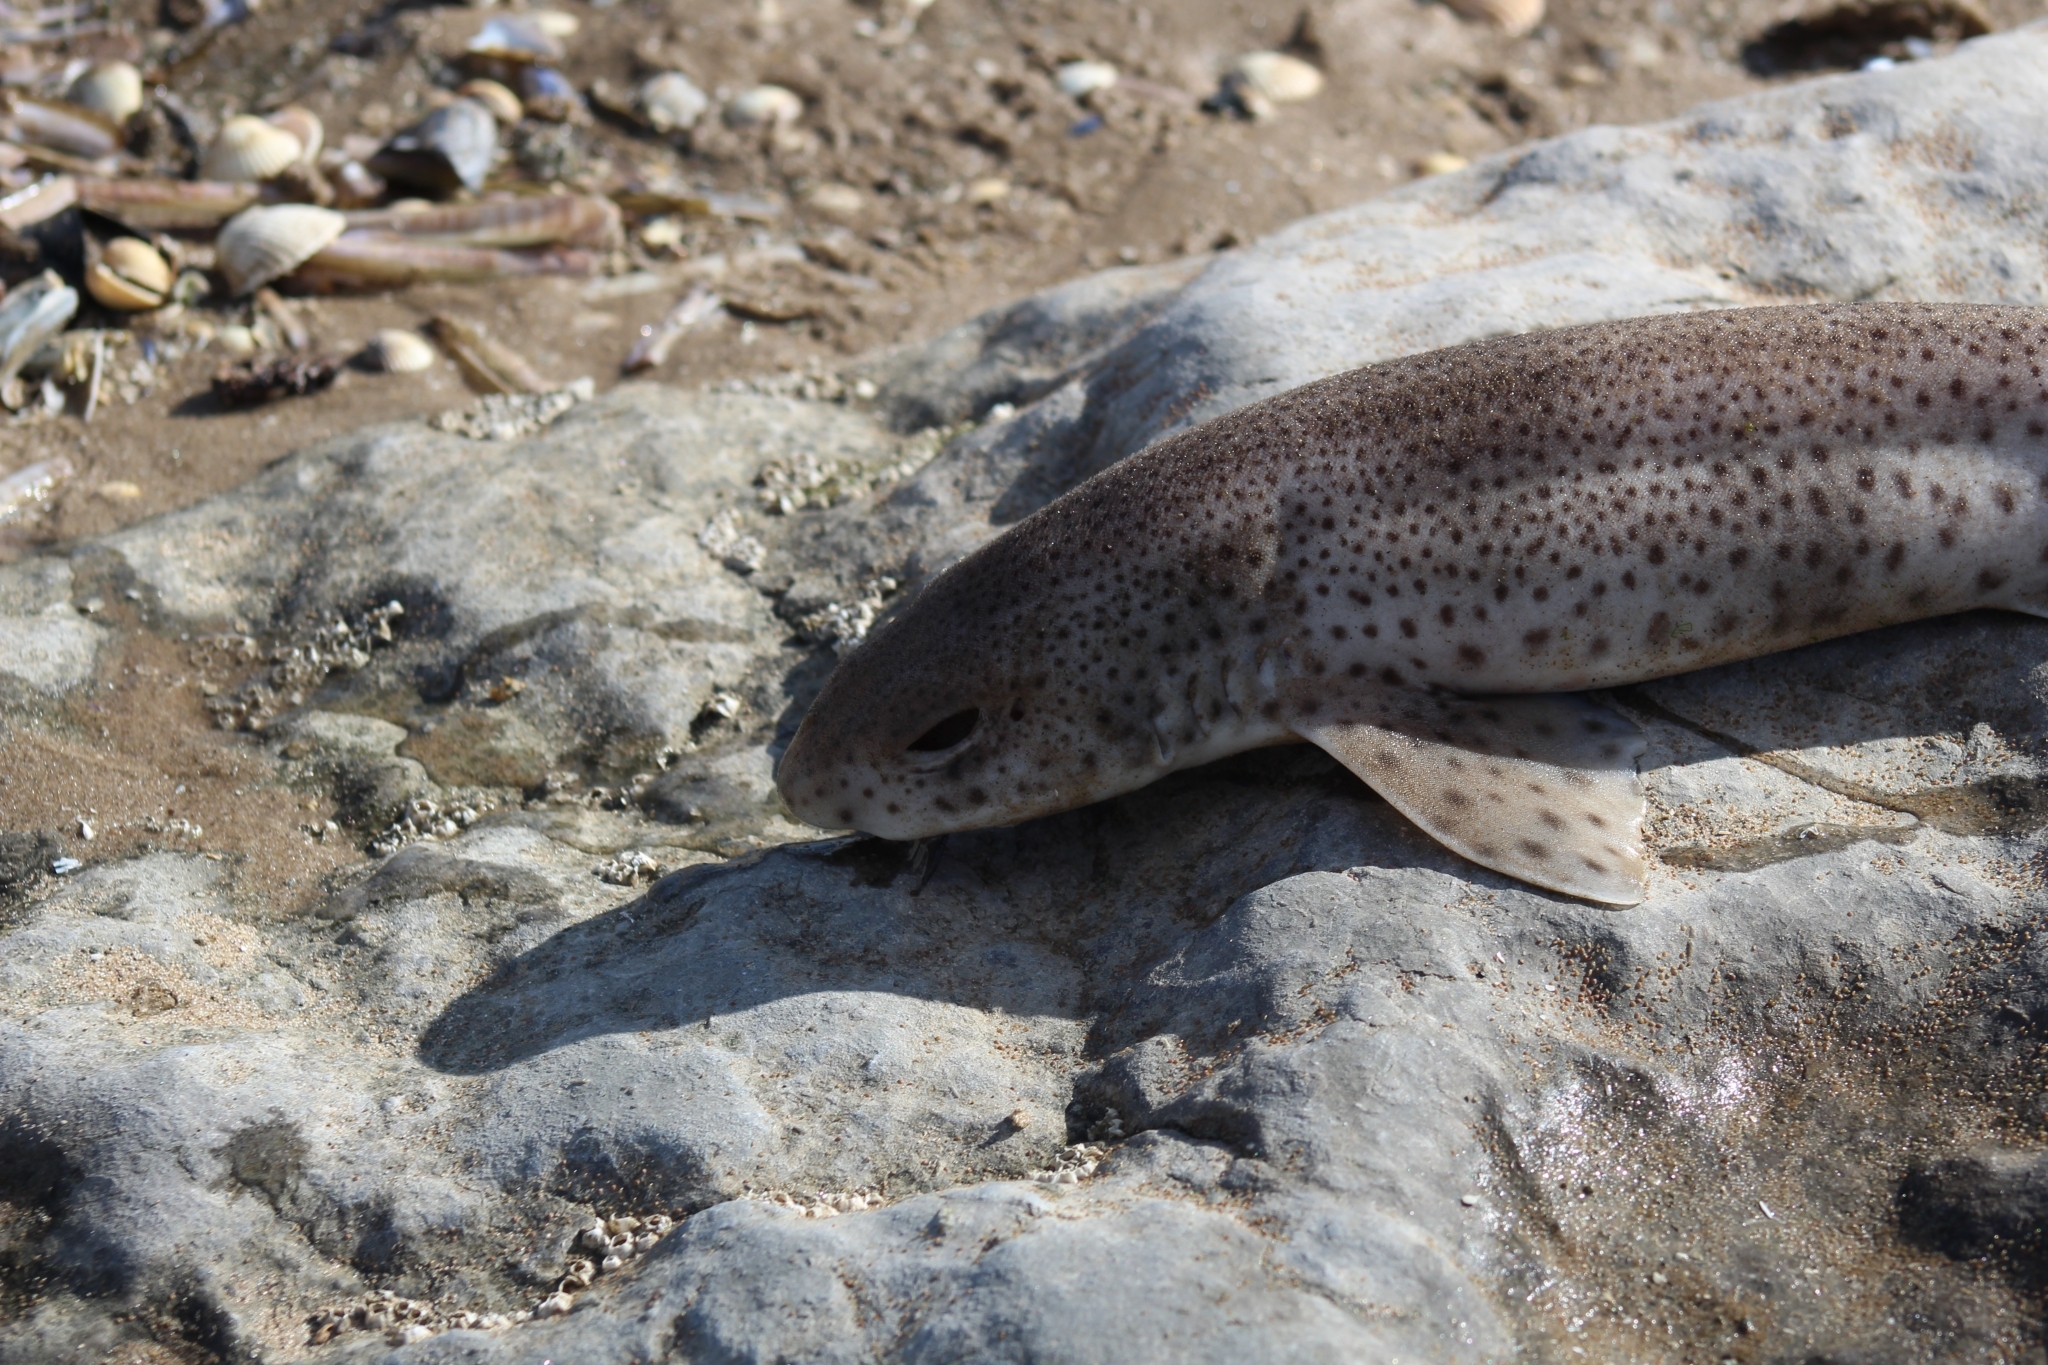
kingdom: Animalia
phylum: Chordata
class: Elasmobranchii
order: Carcharhiniformes
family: Scyliorhinidae
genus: Scyliorhinus
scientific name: Scyliorhinus canicula
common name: Lesser spotted dogfish
